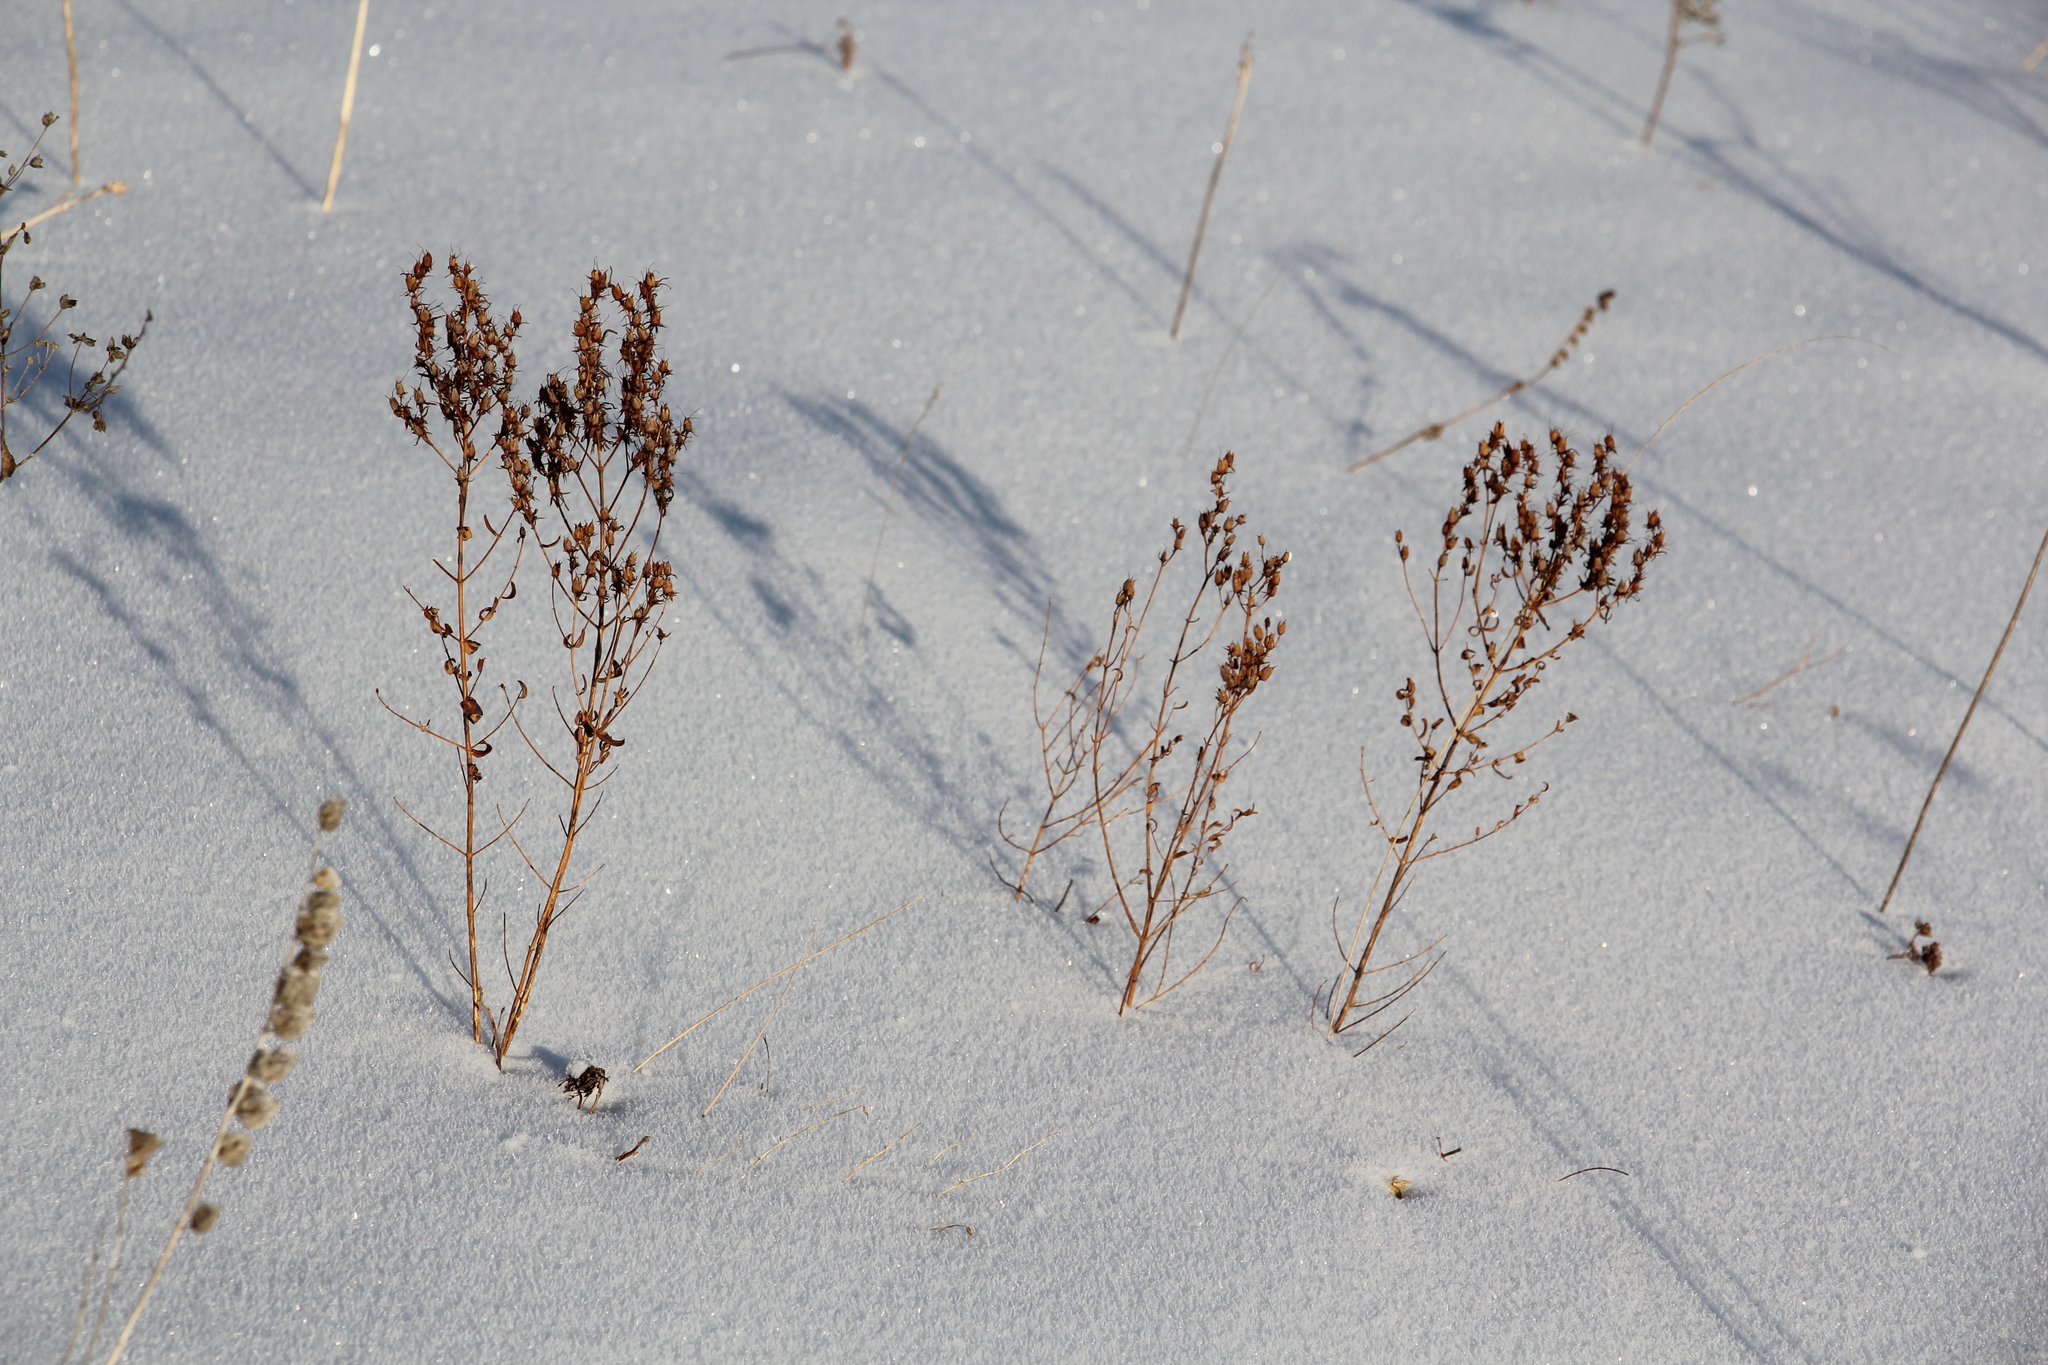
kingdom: Plantae
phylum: Tracheophyta
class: Magnoliopsida
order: Malpighiales
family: Hypericaceae
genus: Hypericum
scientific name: Hypericum perforatum
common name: Common st. johnswort
